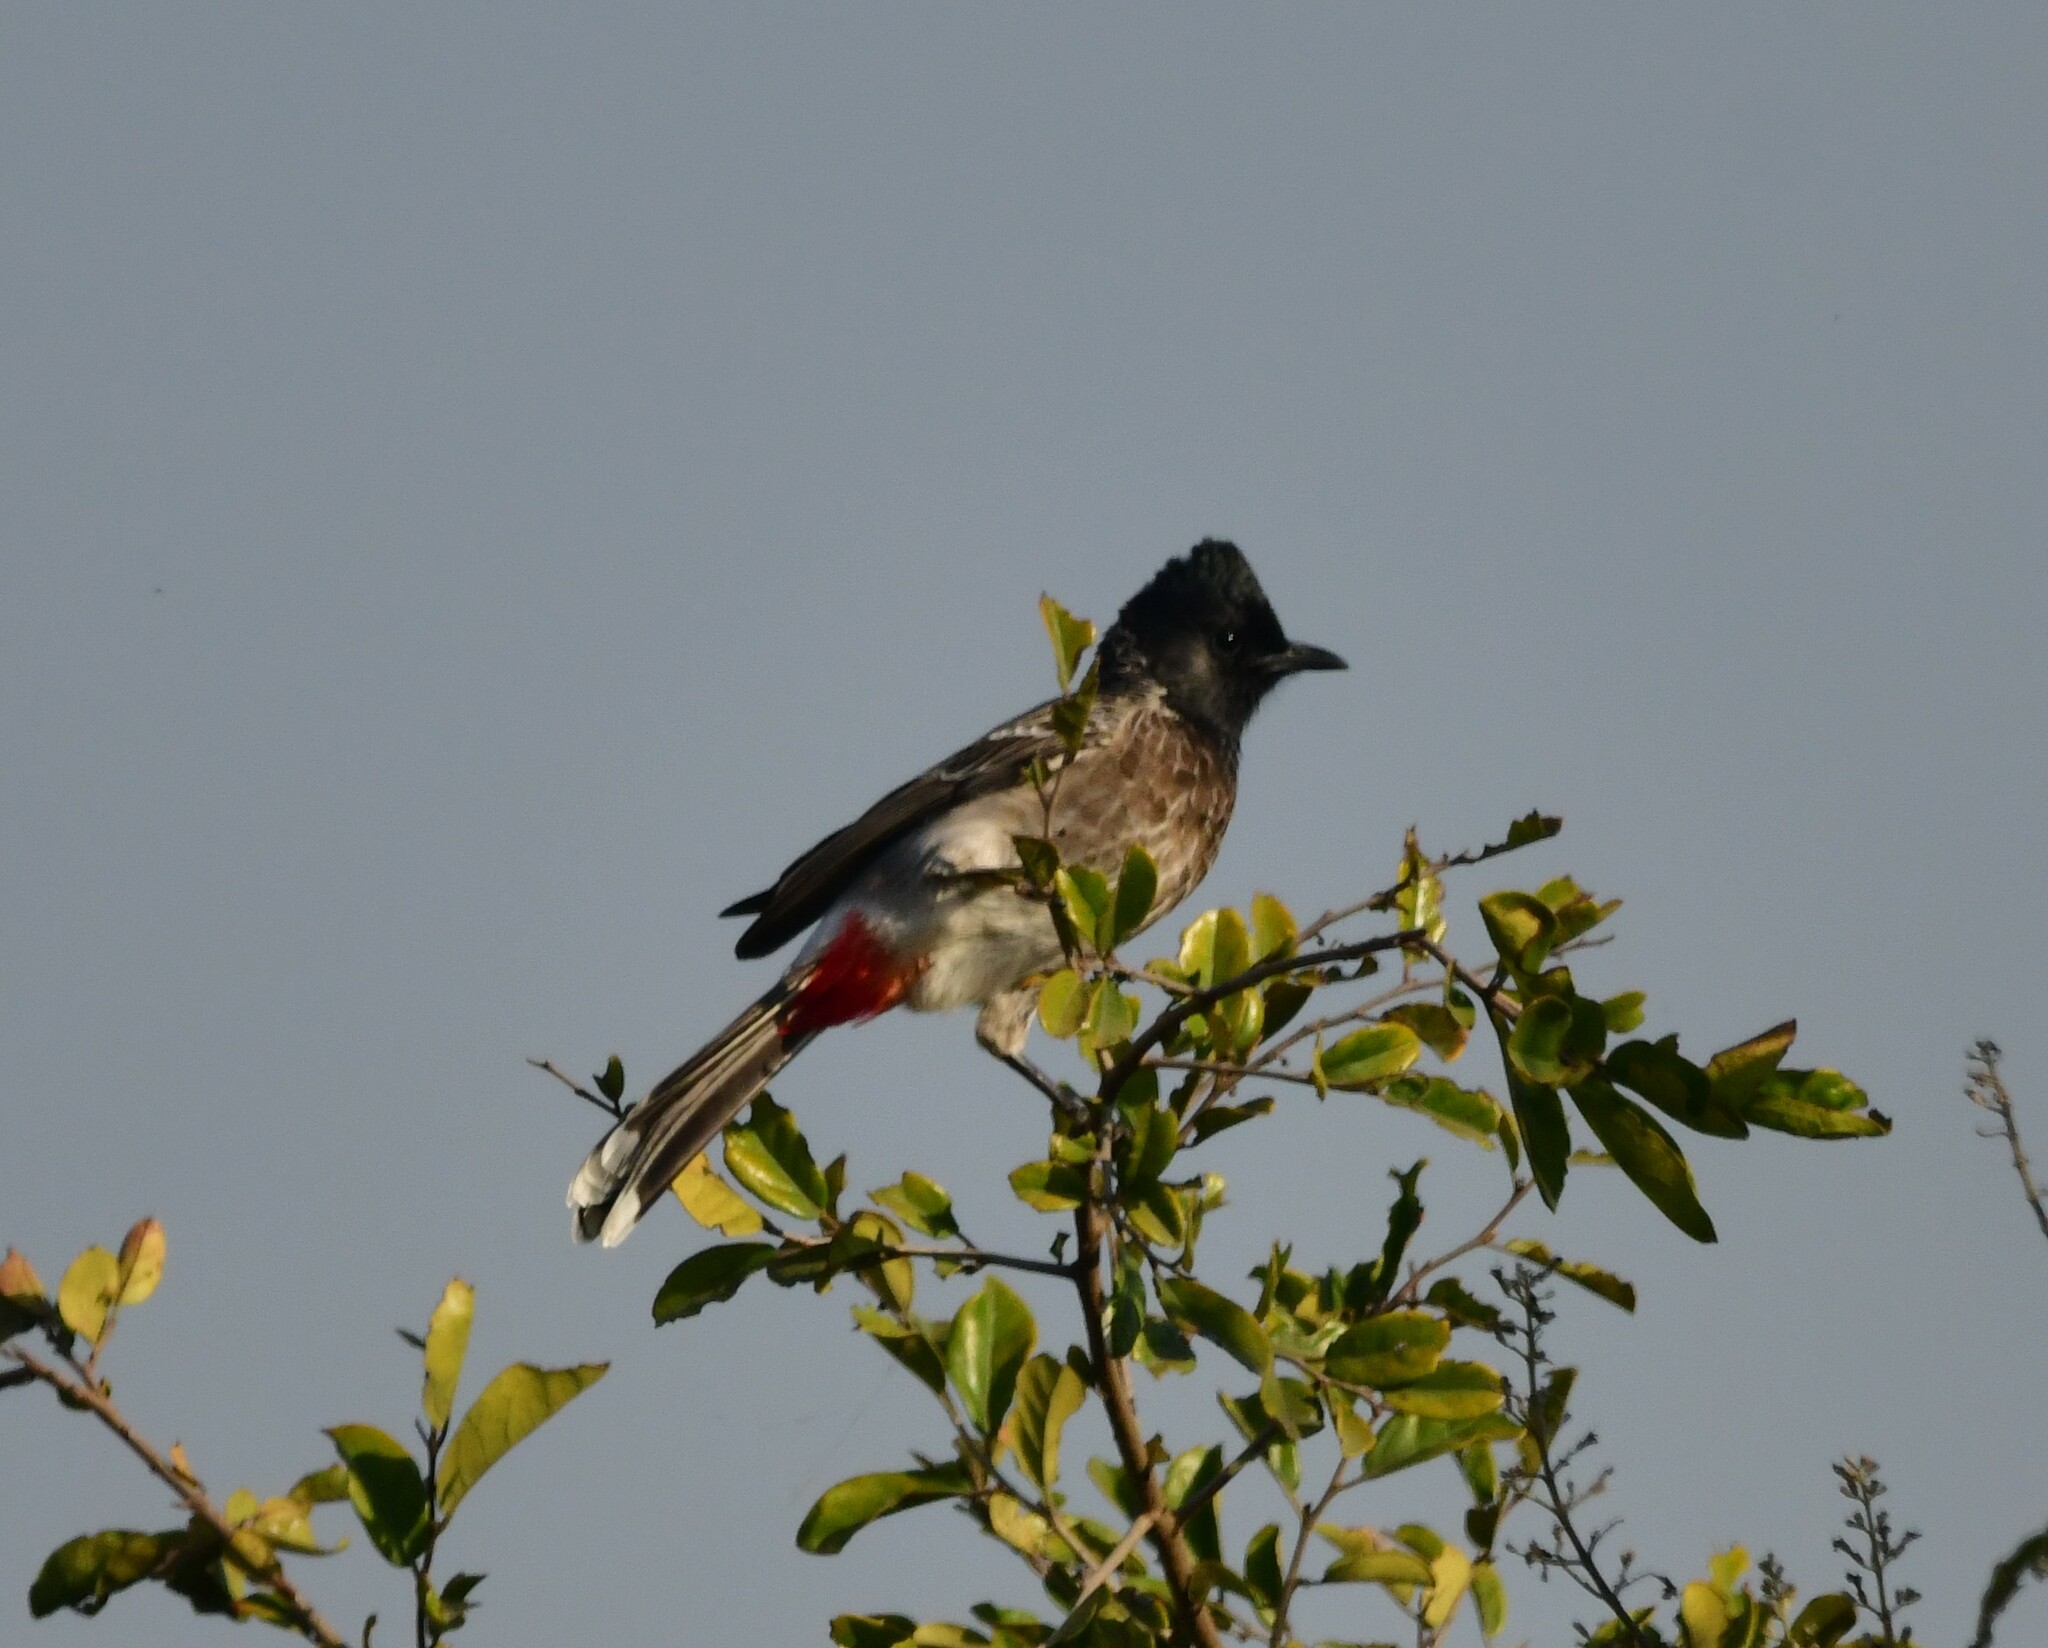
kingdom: Animalia
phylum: Chordata
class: Aves
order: Passeriformes
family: Pycnonotidae
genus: Pycnonotus
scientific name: Pycnonotus cafer
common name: Red-vented bulbul
